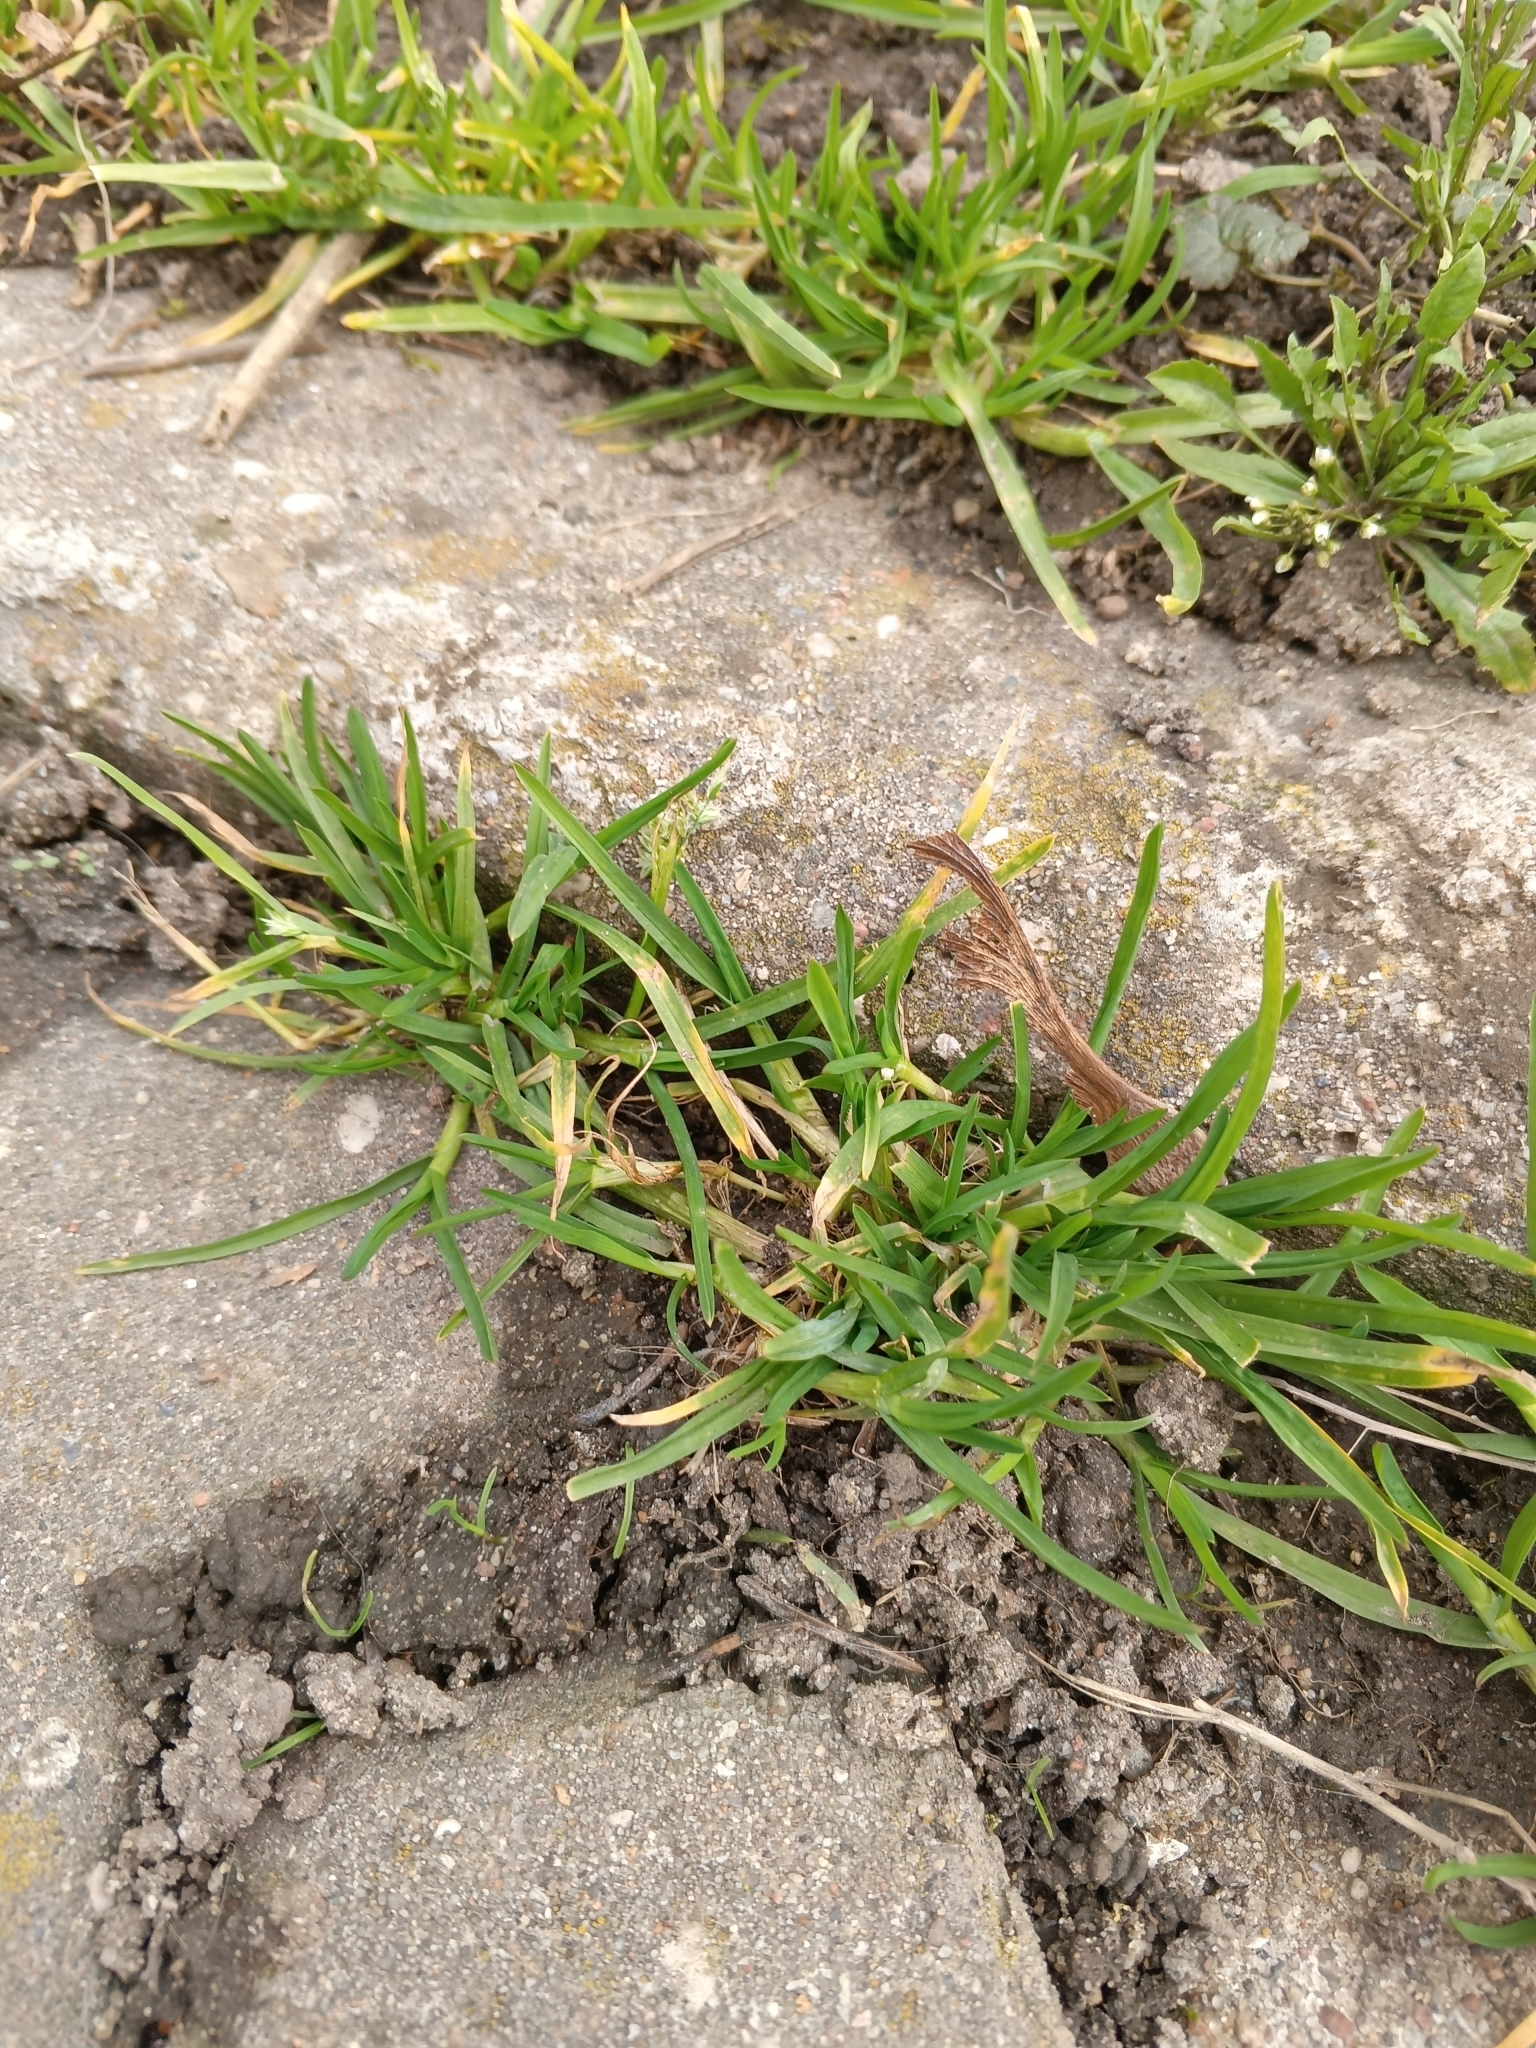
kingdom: Plantae
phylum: Tracheophyta
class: Liliopsida
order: Poales
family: Poaceae
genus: Poa
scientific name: Poa annua
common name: Annual bluegrass
